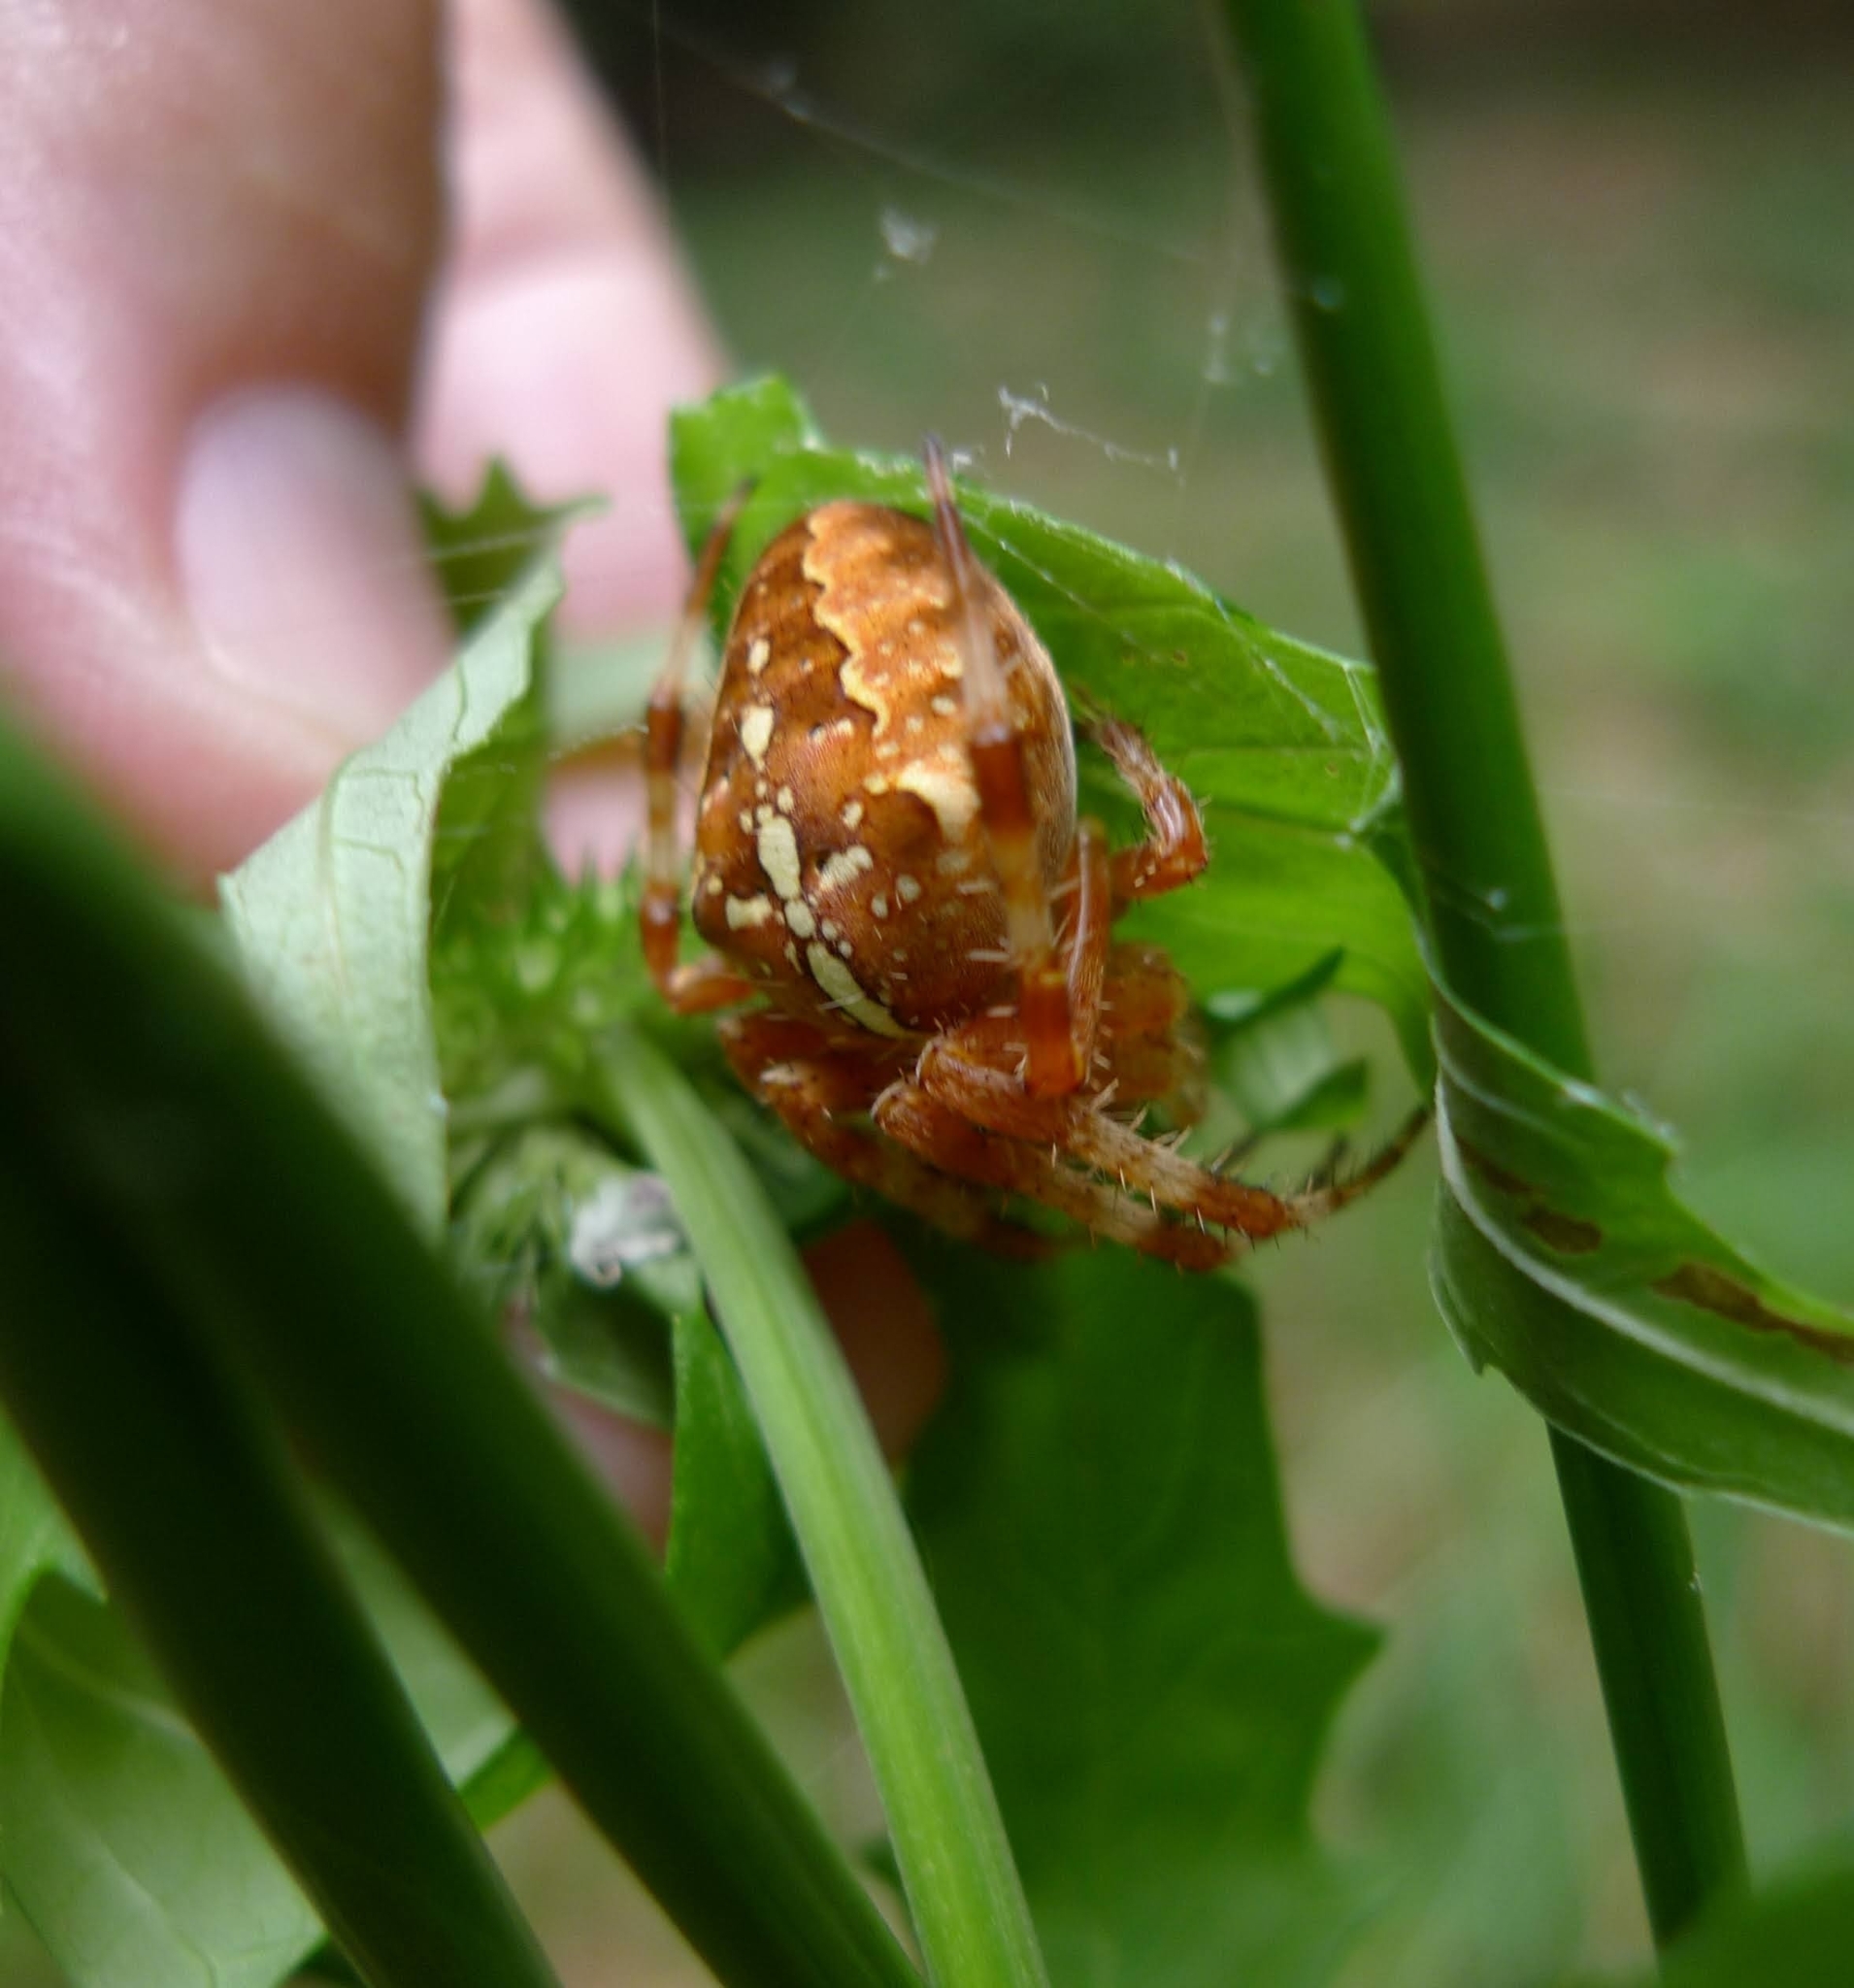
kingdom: Animalia
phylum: Arthropoda
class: Arachnida
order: Araneae
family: Araneidae
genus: Araneus
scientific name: Araneus diadematus
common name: Cross orbweaver
